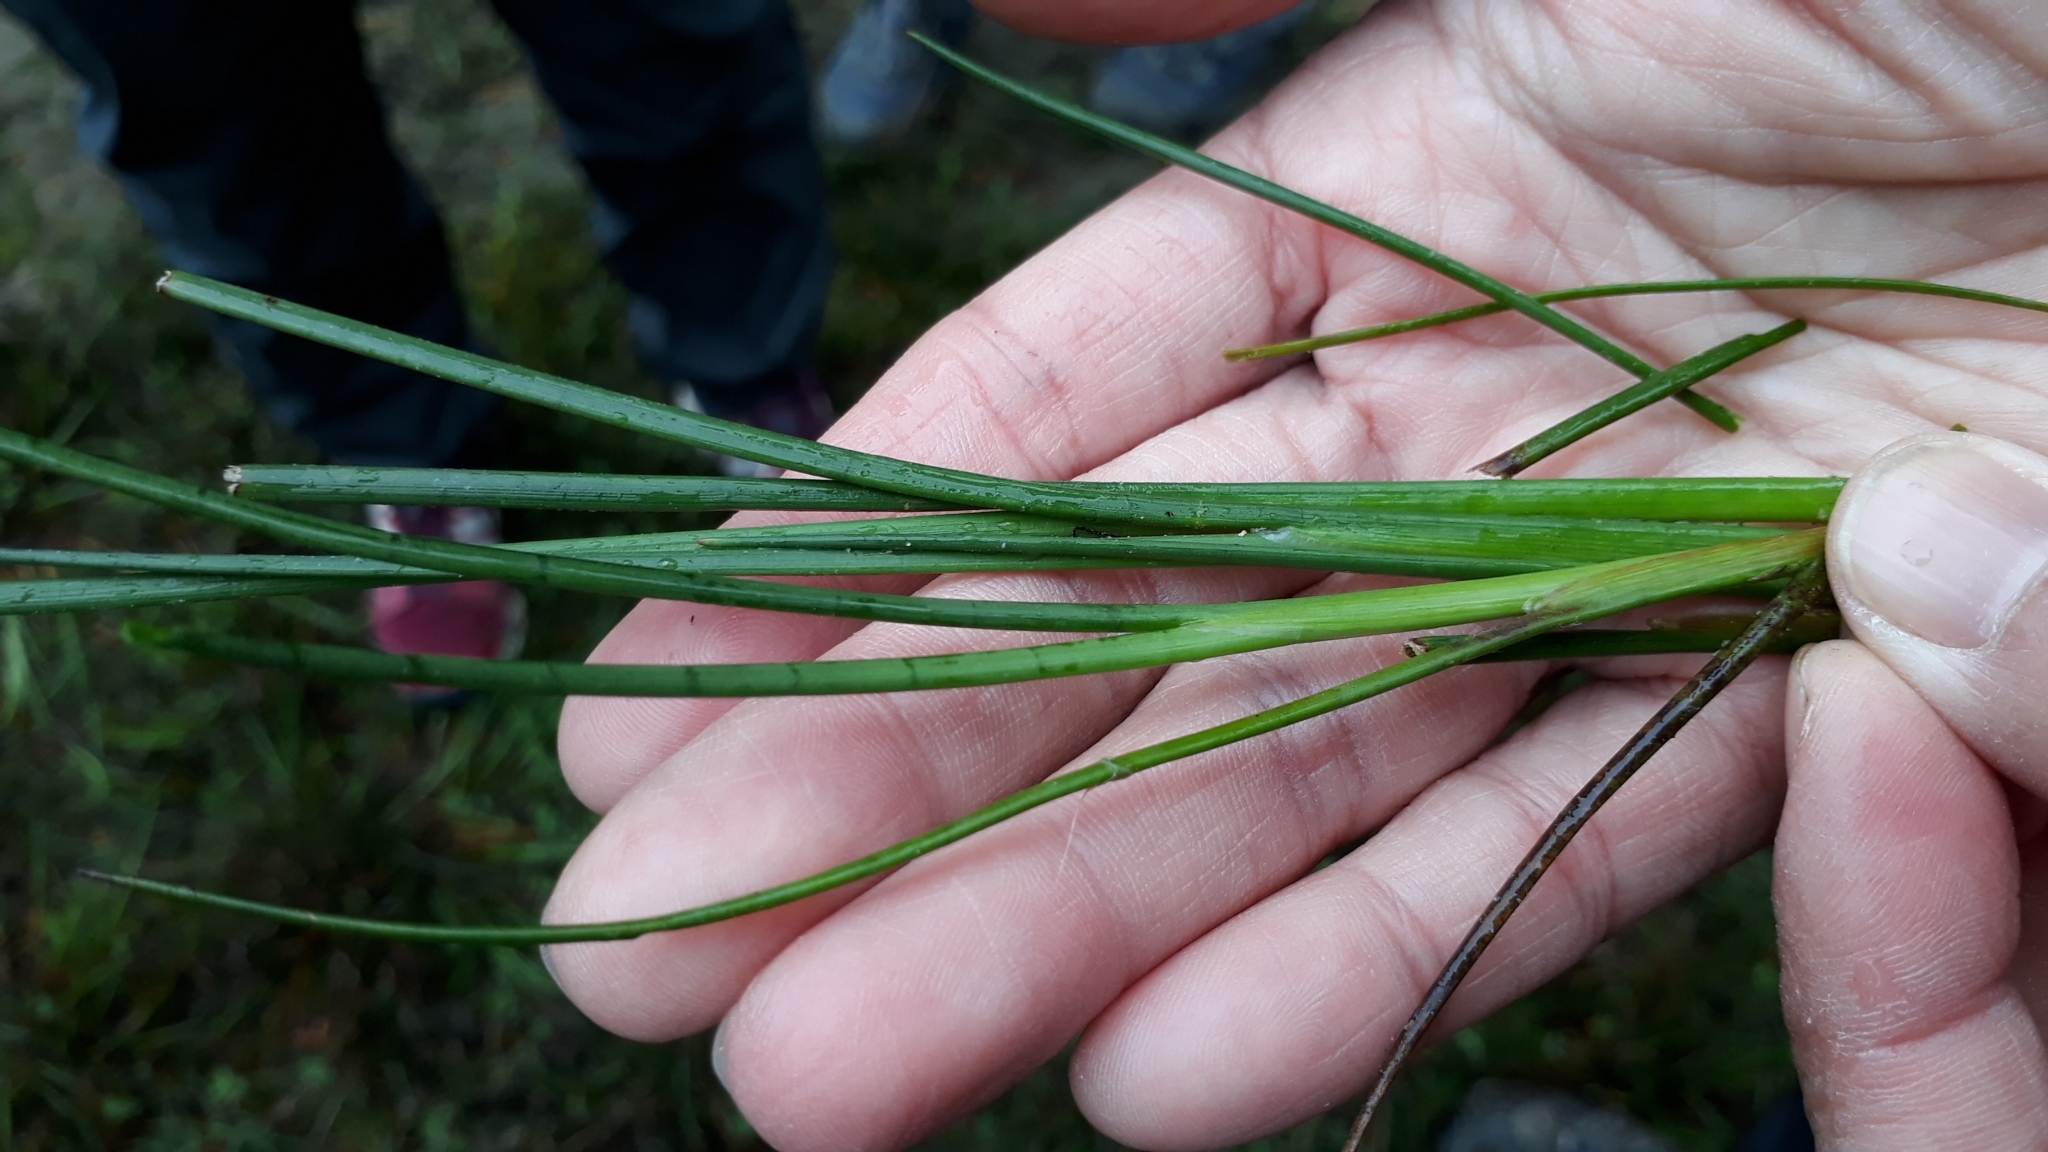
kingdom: Plantae
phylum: Tracheophyta
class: Liliopsida
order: Poales
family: Juncaceae
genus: Juncus
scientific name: Juncus articulatus
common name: Jointed rush
